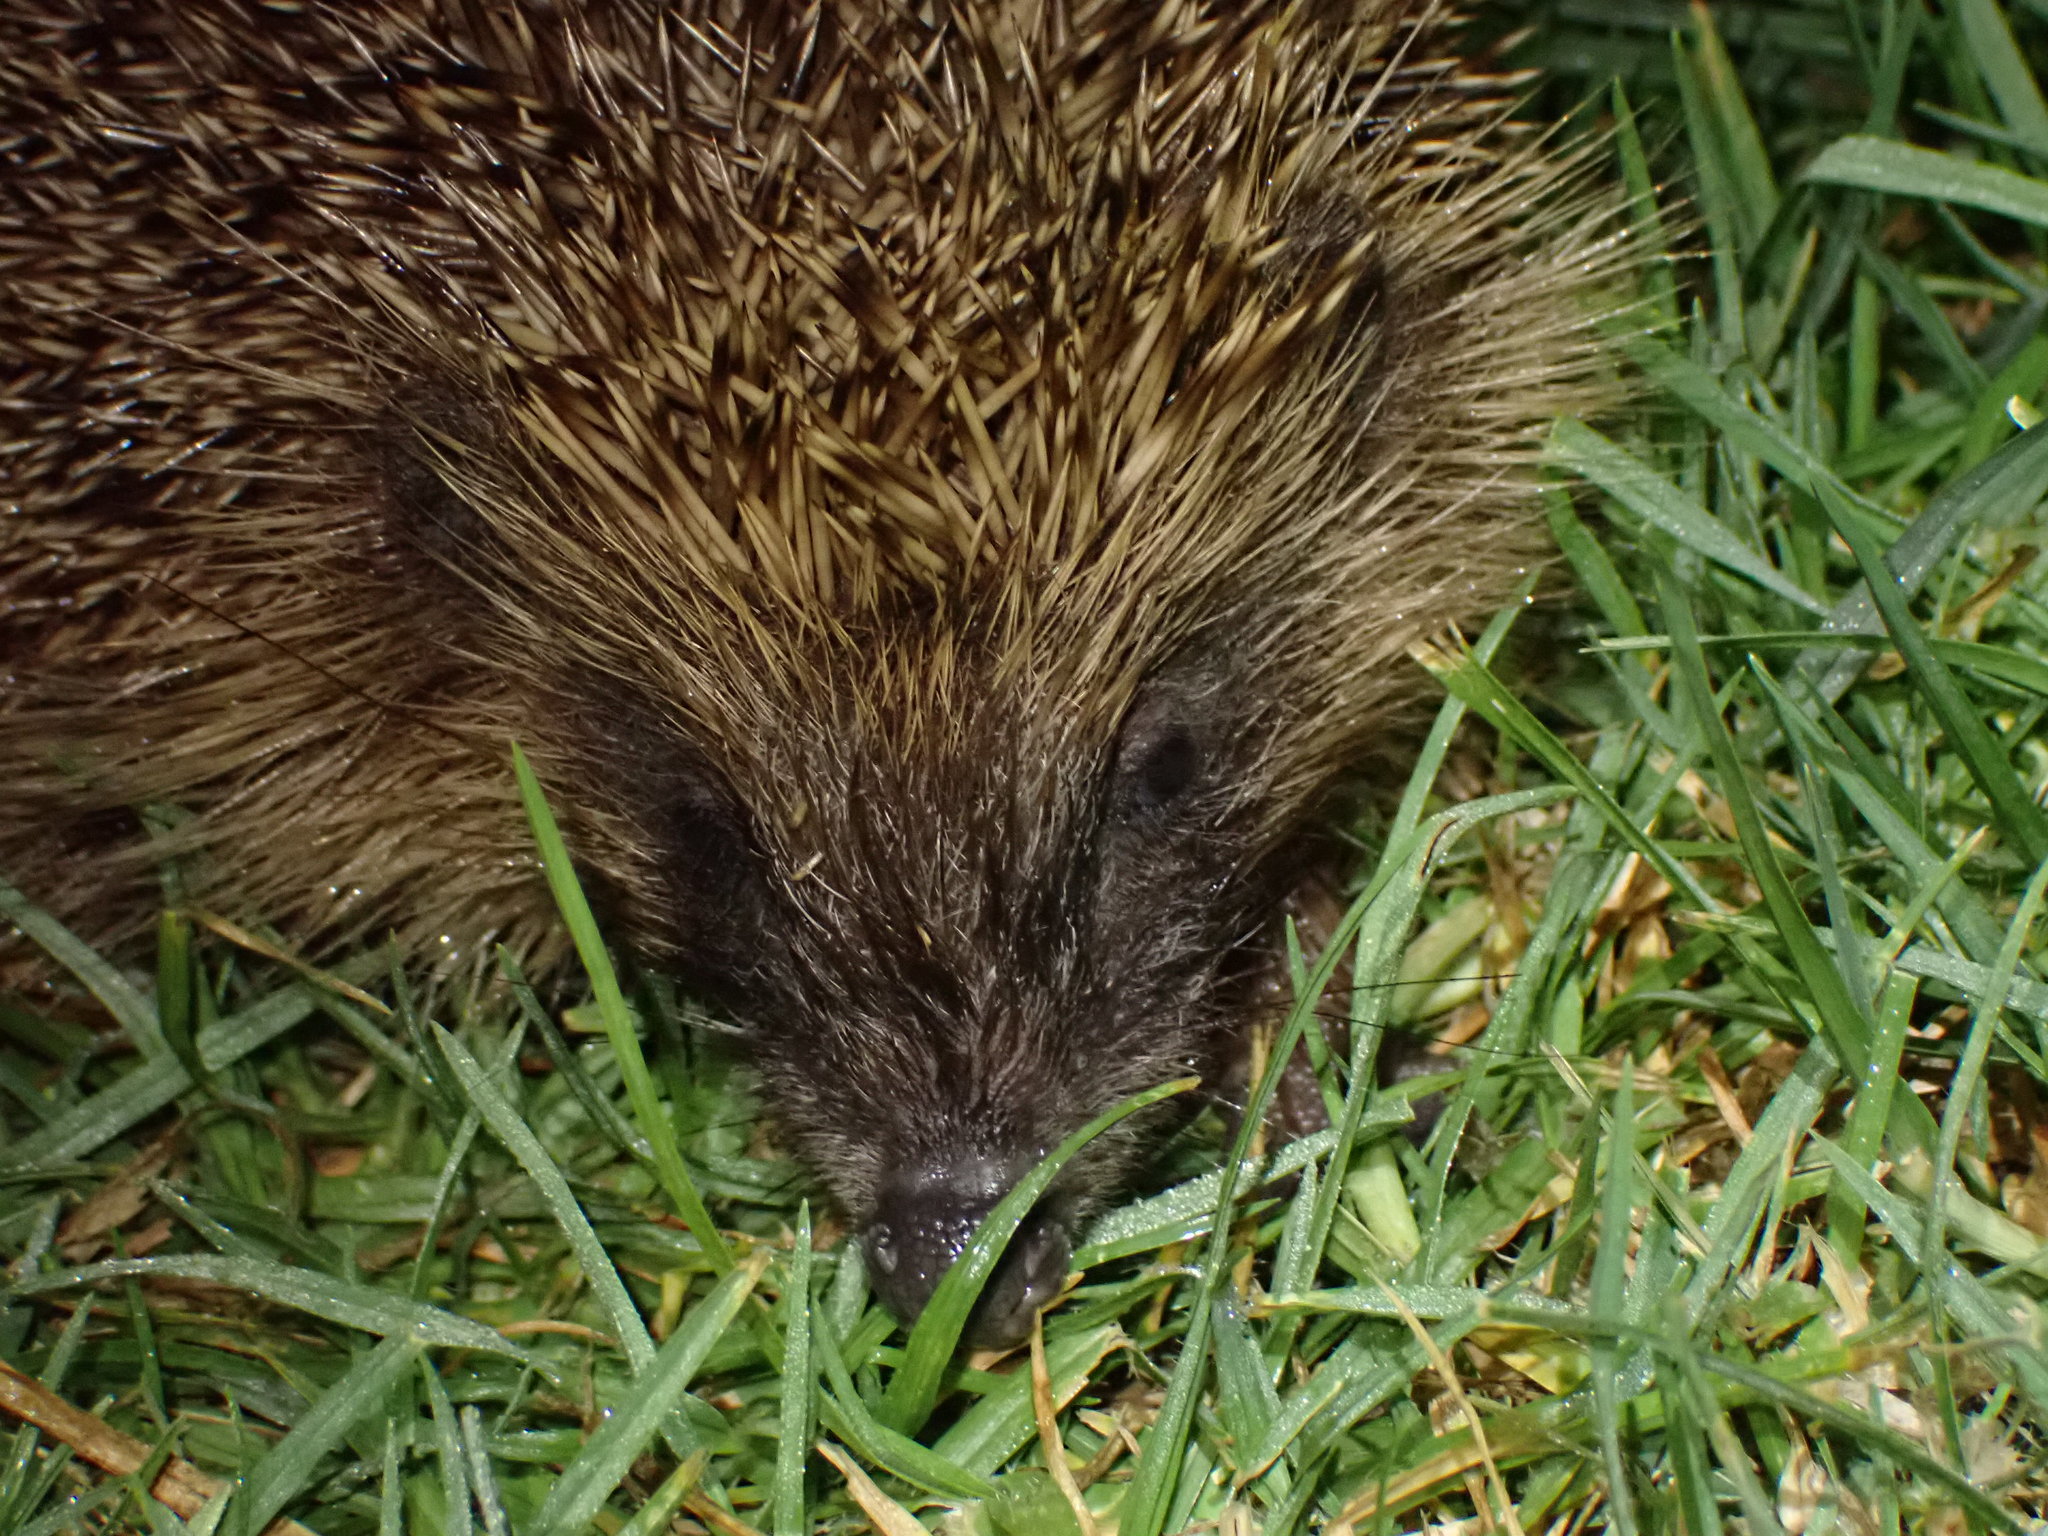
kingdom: Animalia
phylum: Chordata
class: Mammalia
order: Erinaceomorpha
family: Erinaceidae
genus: Erinaceus
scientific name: Erinaceus europaeus
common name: West european hedgehog
